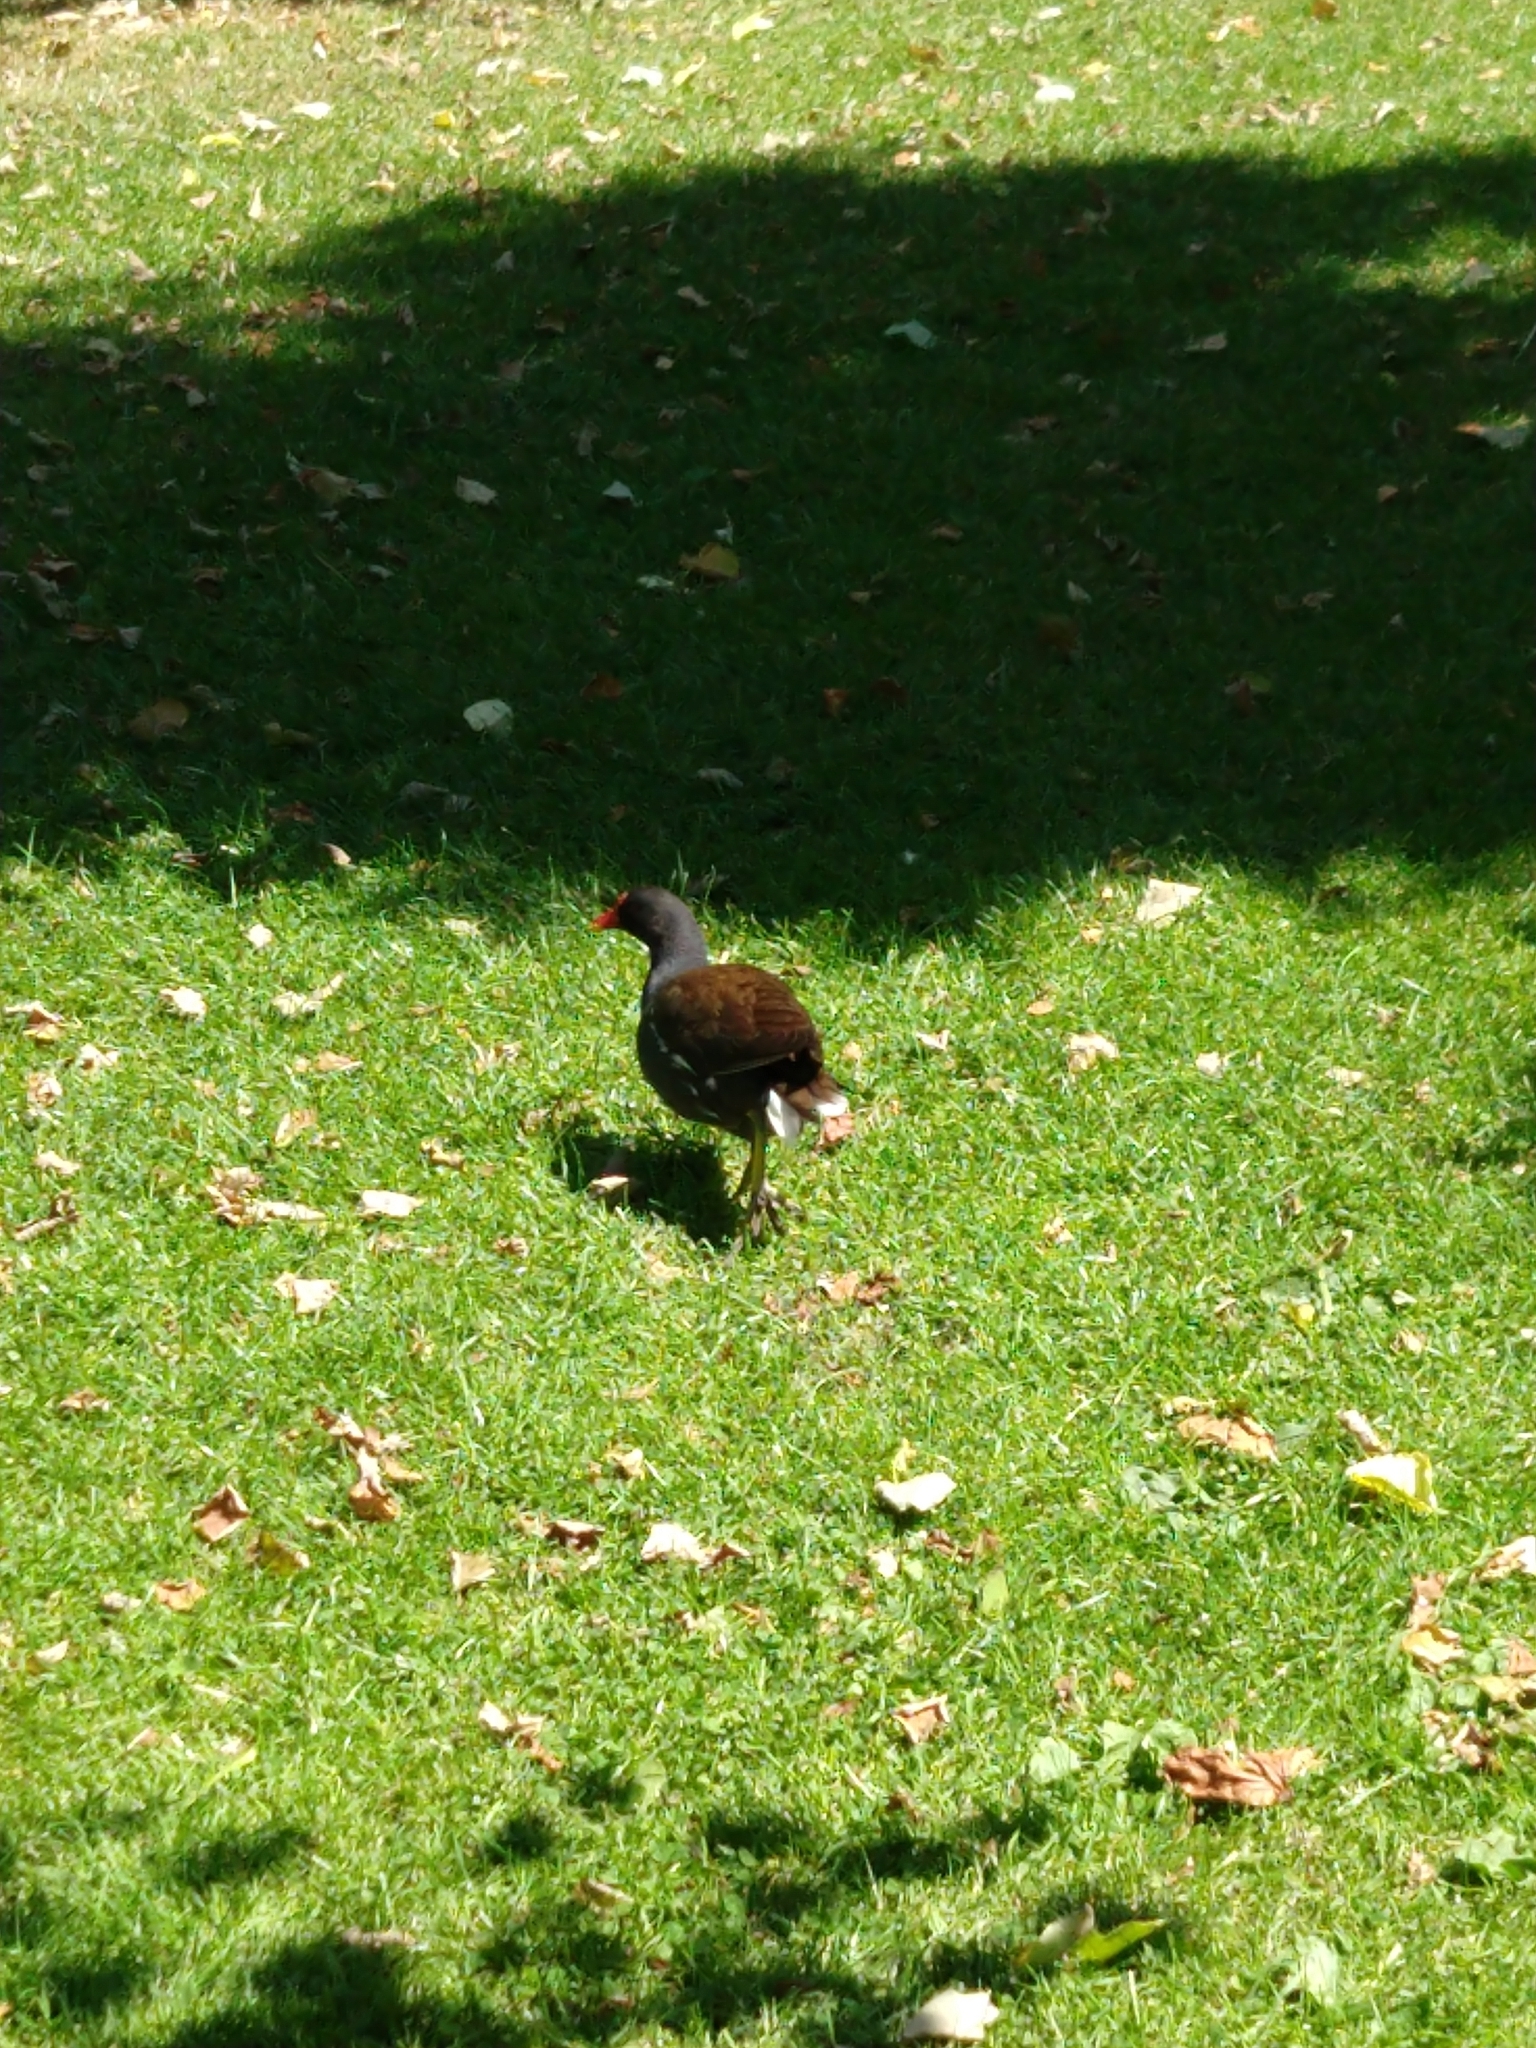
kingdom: Animalia
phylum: Chordata
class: Aves
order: Gruiformes
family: Rallidae
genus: Gallinula
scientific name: Gallinula chloropus
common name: Common moorhen
